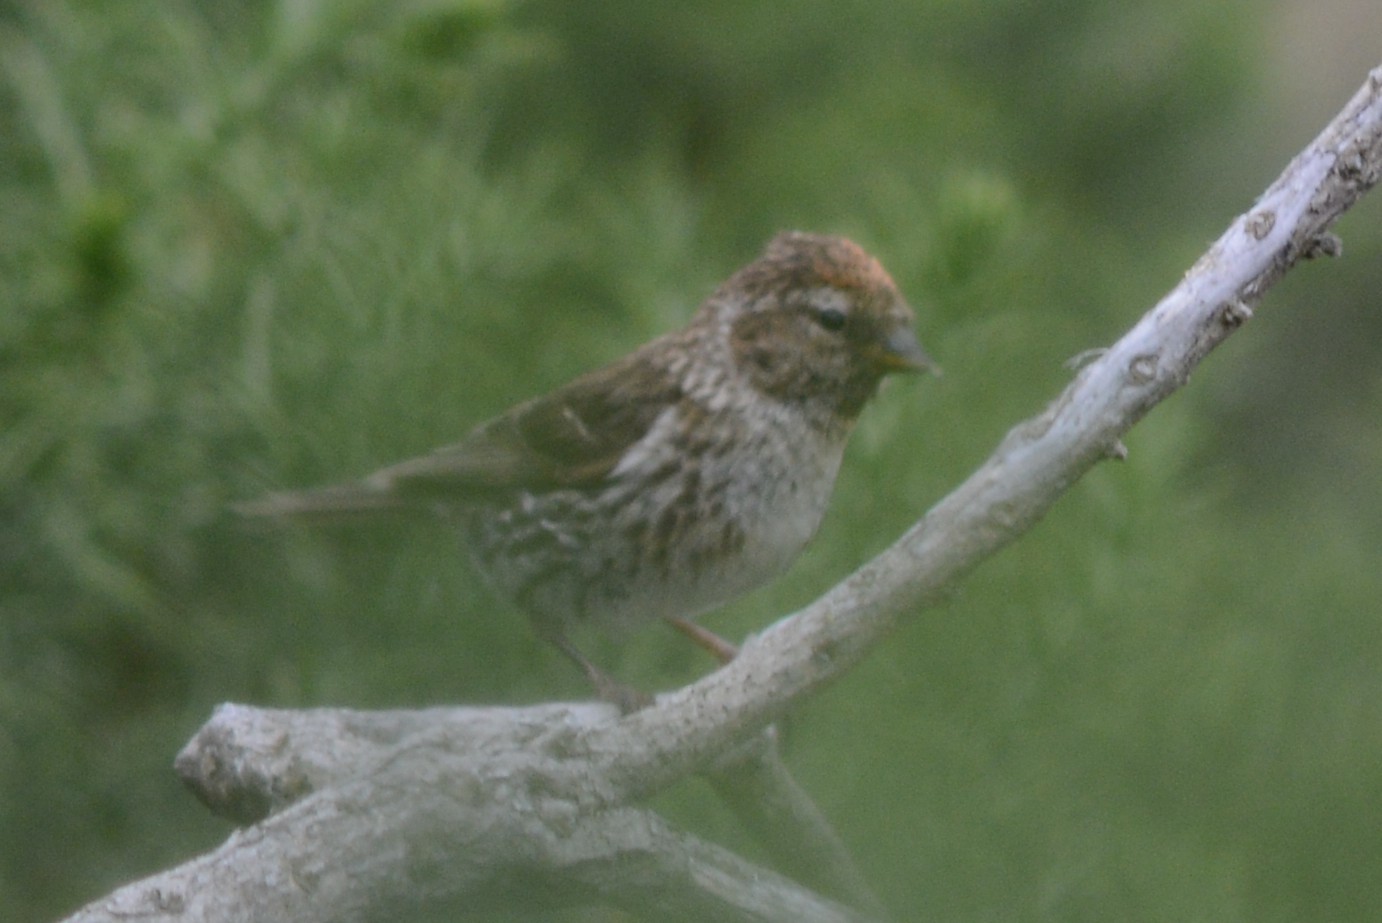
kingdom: Animalia
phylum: Chordata
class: Aves
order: Passeriformes
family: Fringillidae
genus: Acanthis
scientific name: Acanthis flammea
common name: Common redpoll
